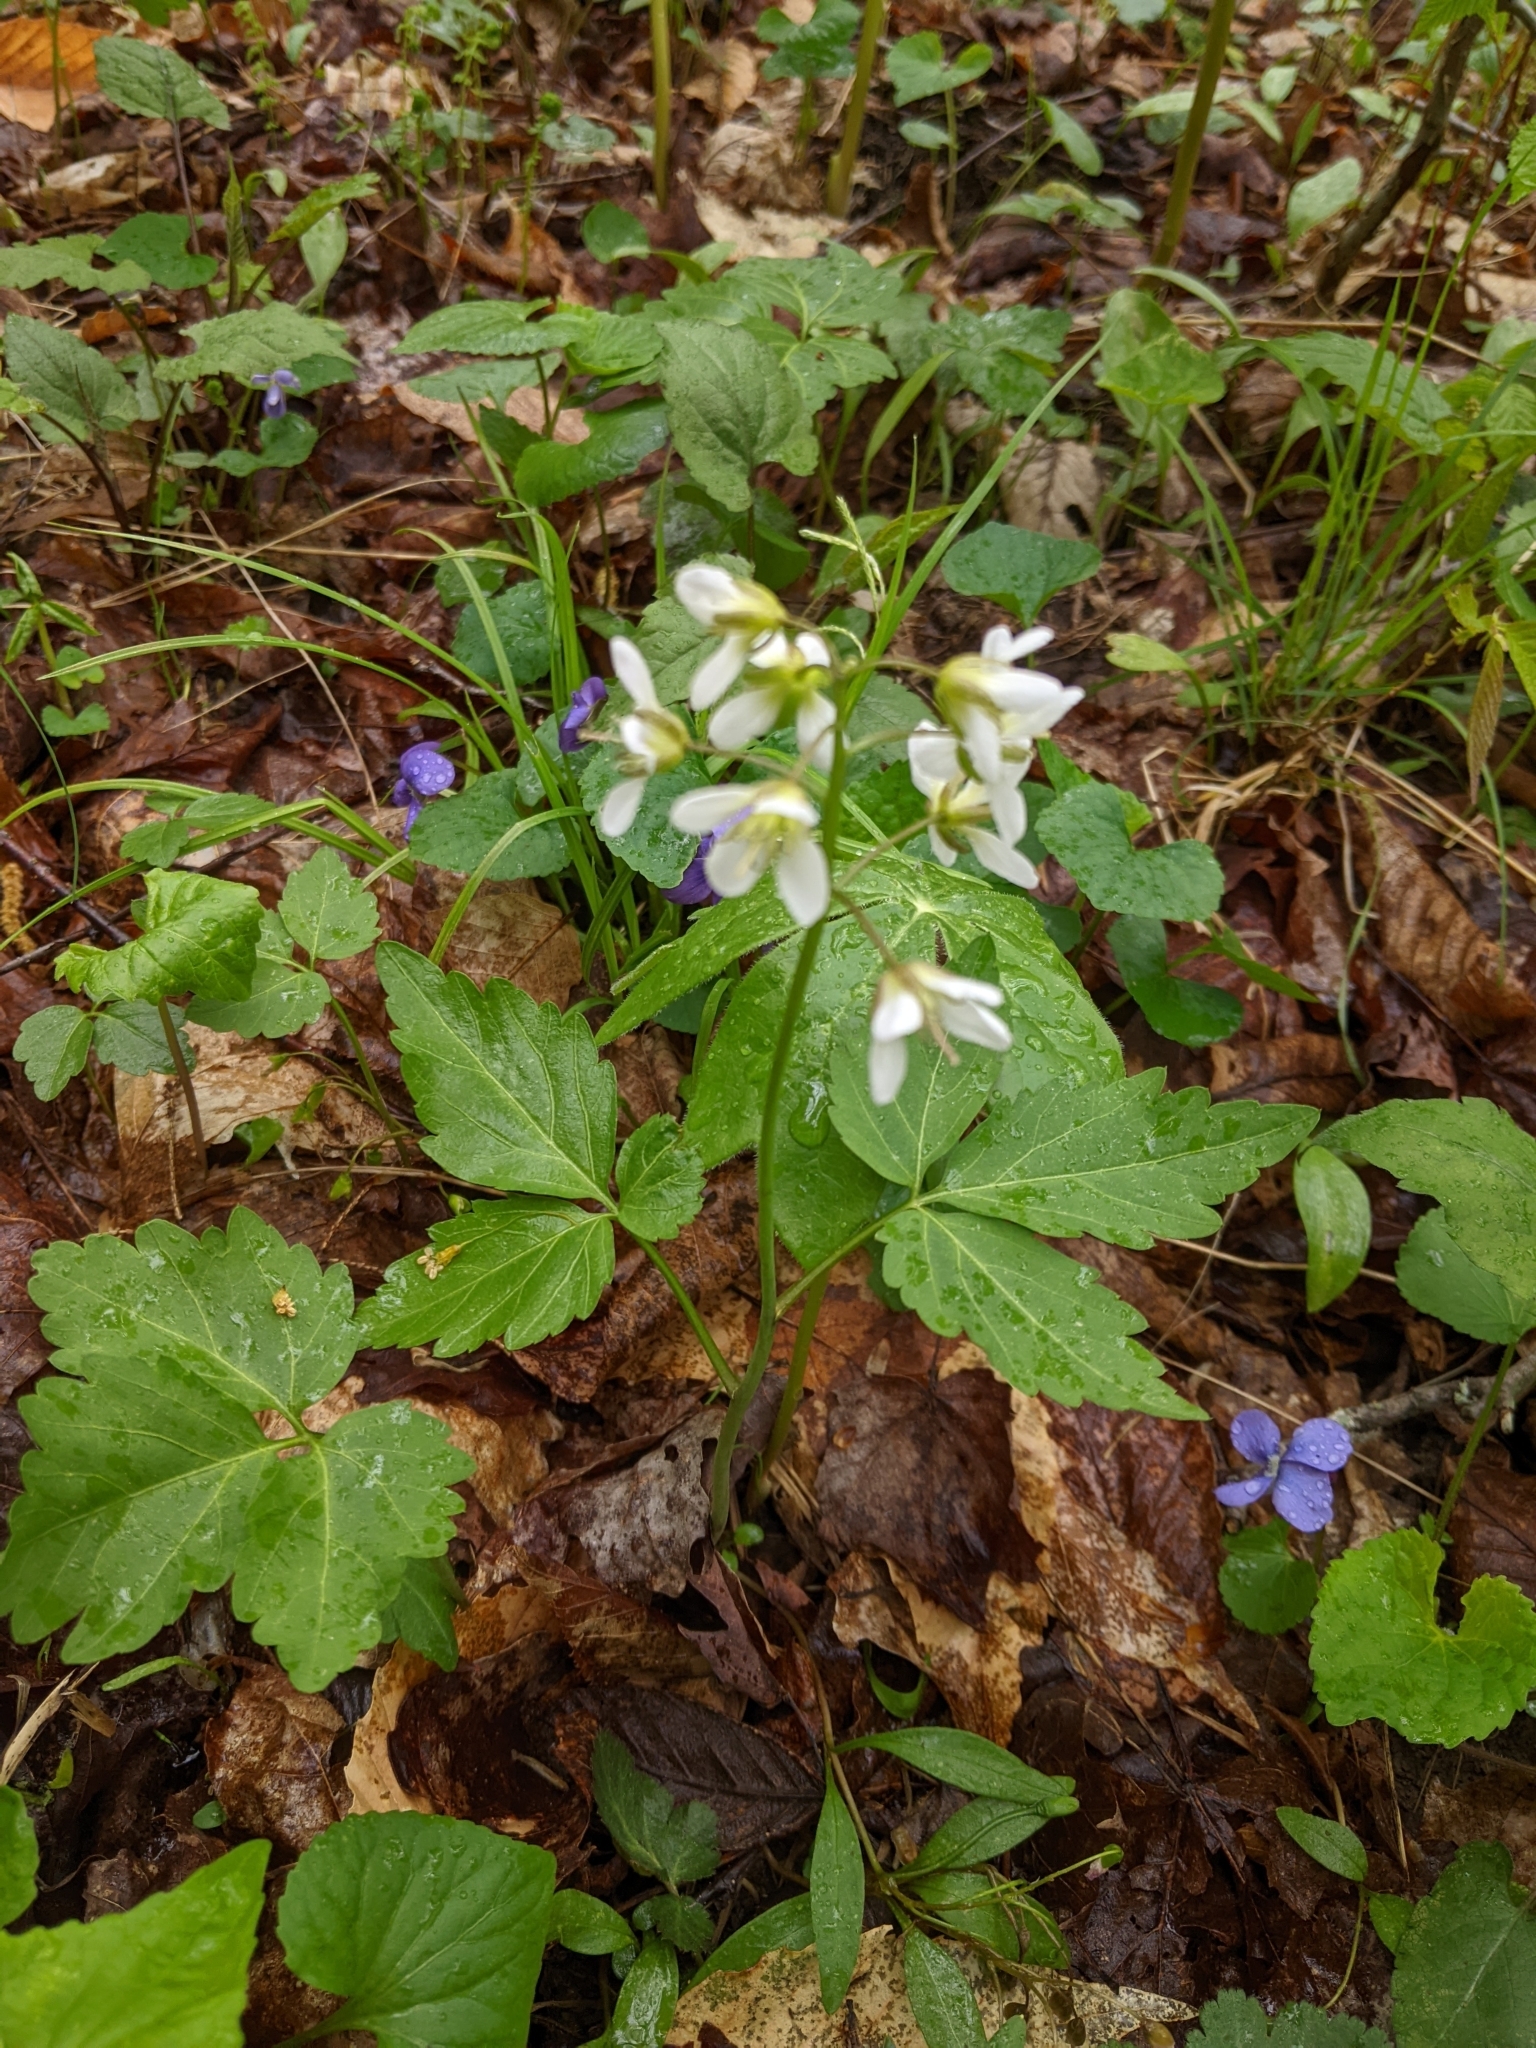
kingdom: Plantae
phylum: Tracheophyta
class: Magnoliopsida
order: Brassicales
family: Brassicaceae
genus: Cardamine
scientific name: Cardamine diphylla
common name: Broad-leaved toothwort
